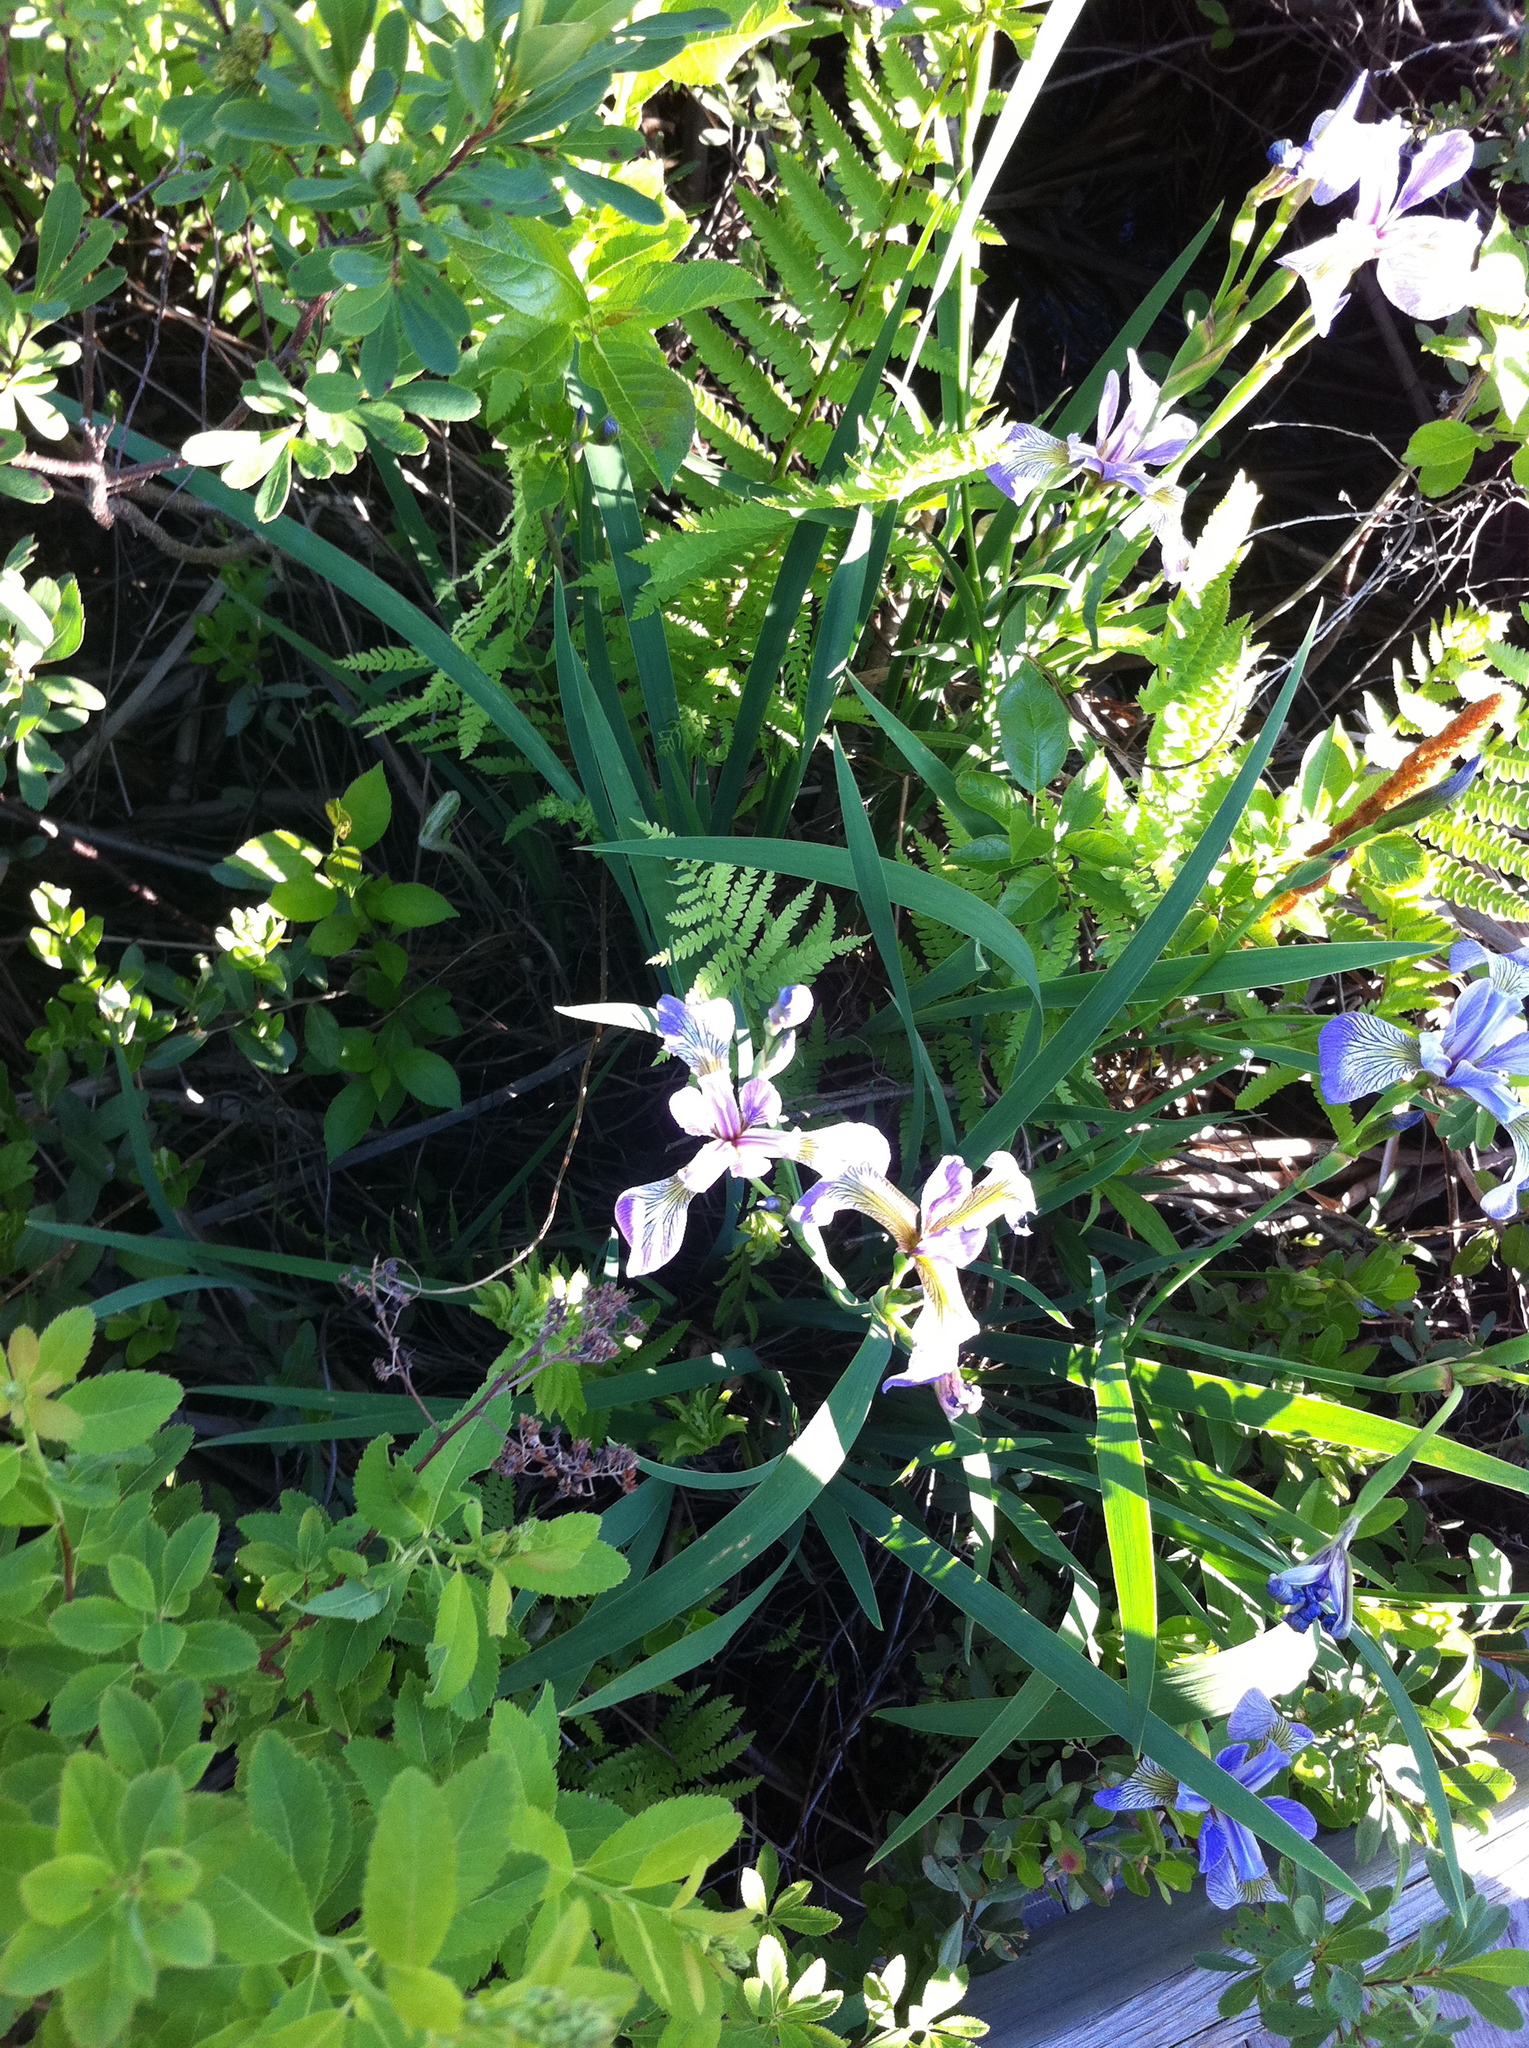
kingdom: Plantae
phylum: Tracheophyta
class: Magnoliopsida
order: Fagales
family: Myricaceae
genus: Myrica
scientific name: Myrica gale
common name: Sweet gale
